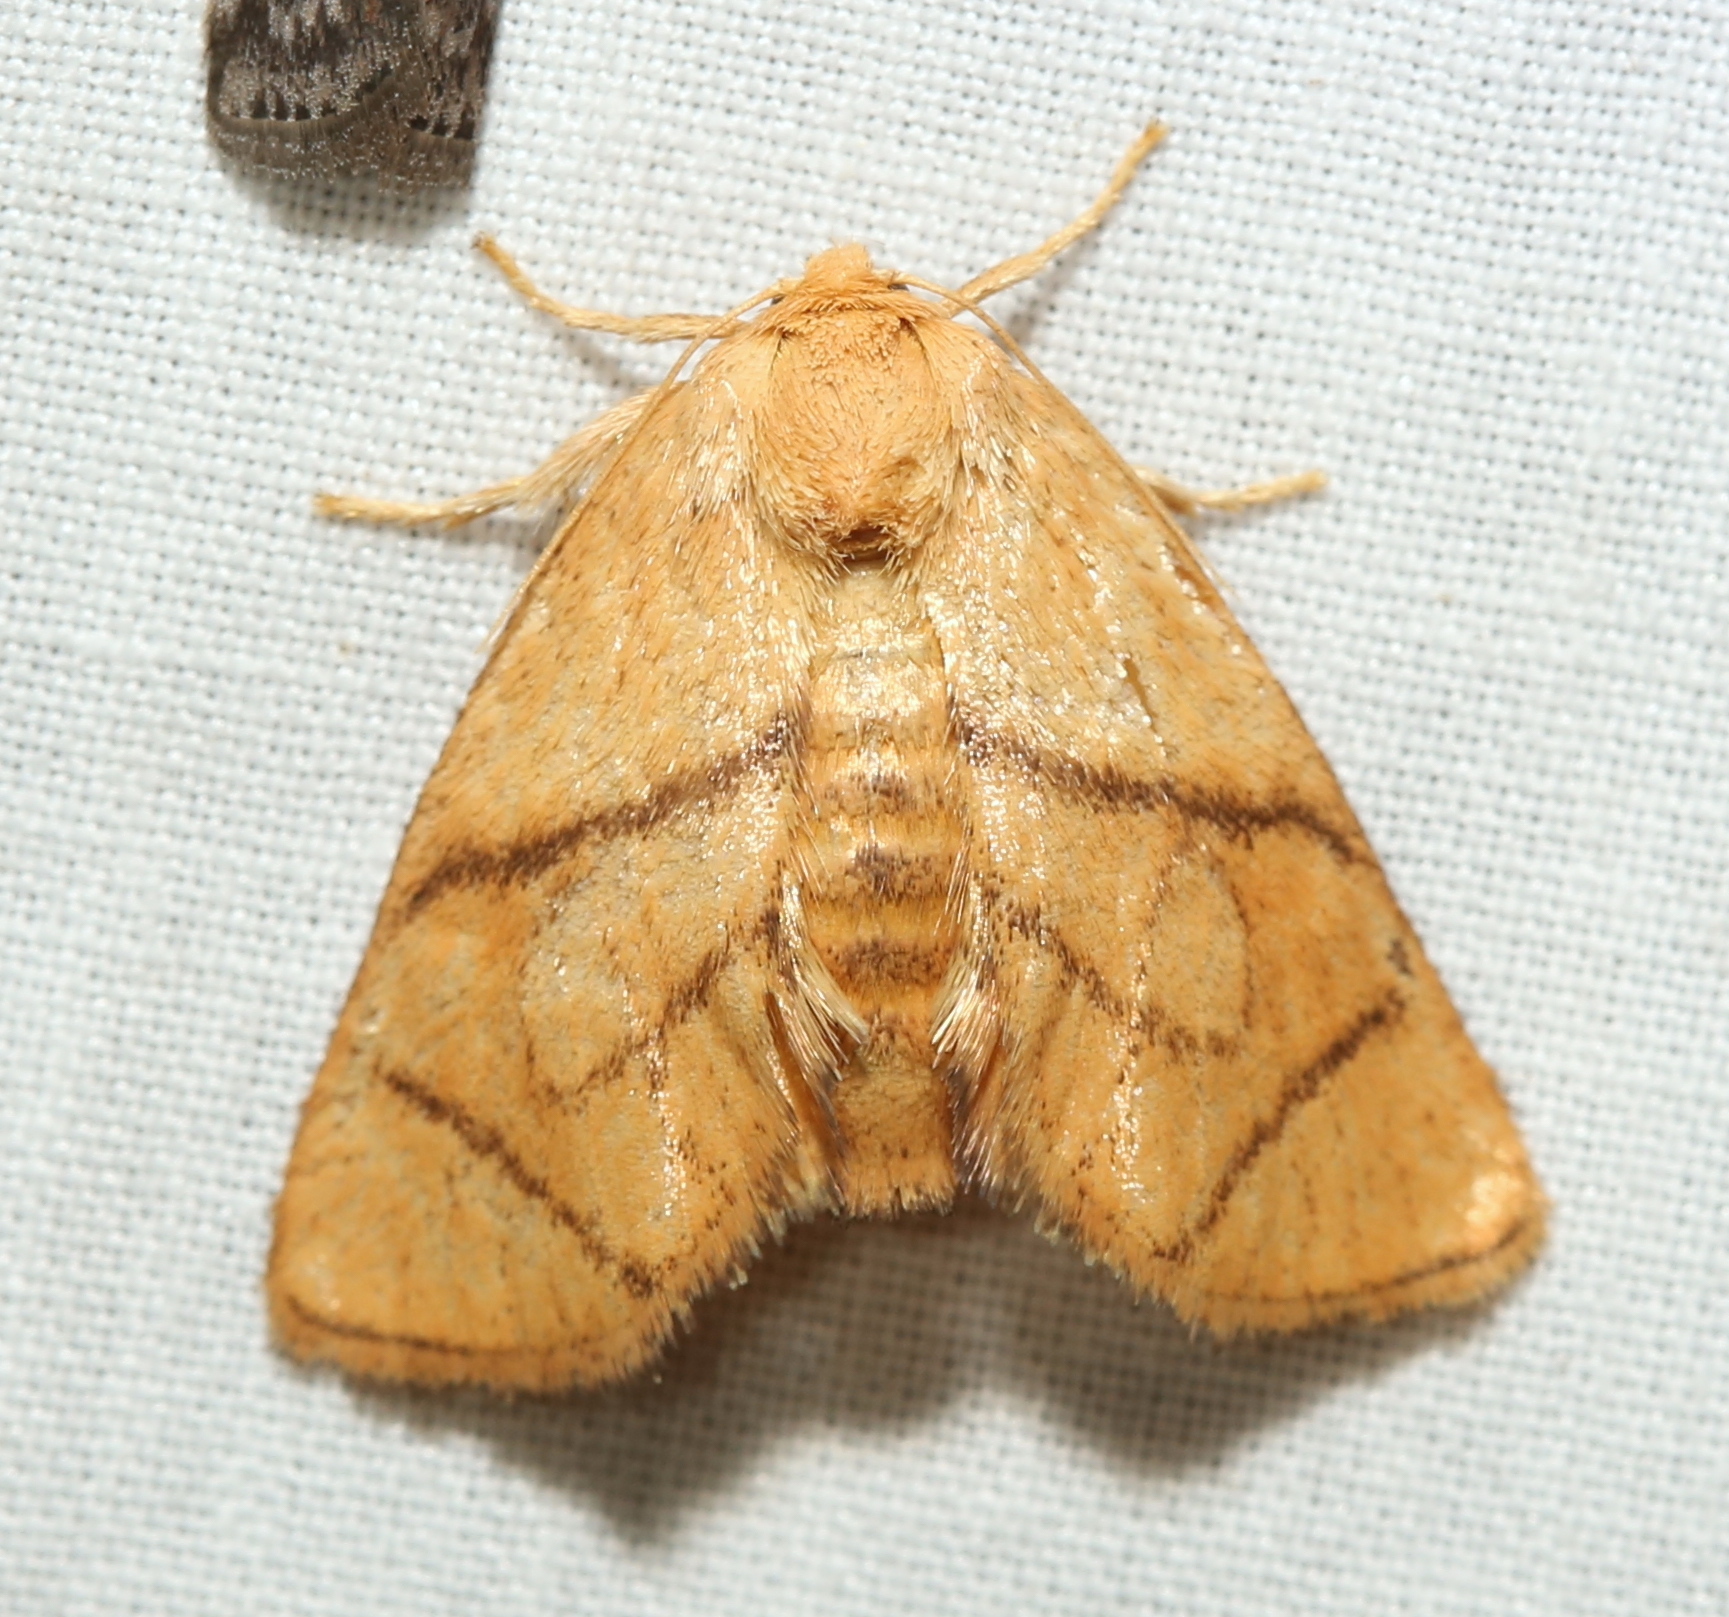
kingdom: Animalia
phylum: Arthropoda
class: Insecta
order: Lepidoptera
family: Limacodidae
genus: Apoda
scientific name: Apoda y-inversa
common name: Yellow-collared slug moth
